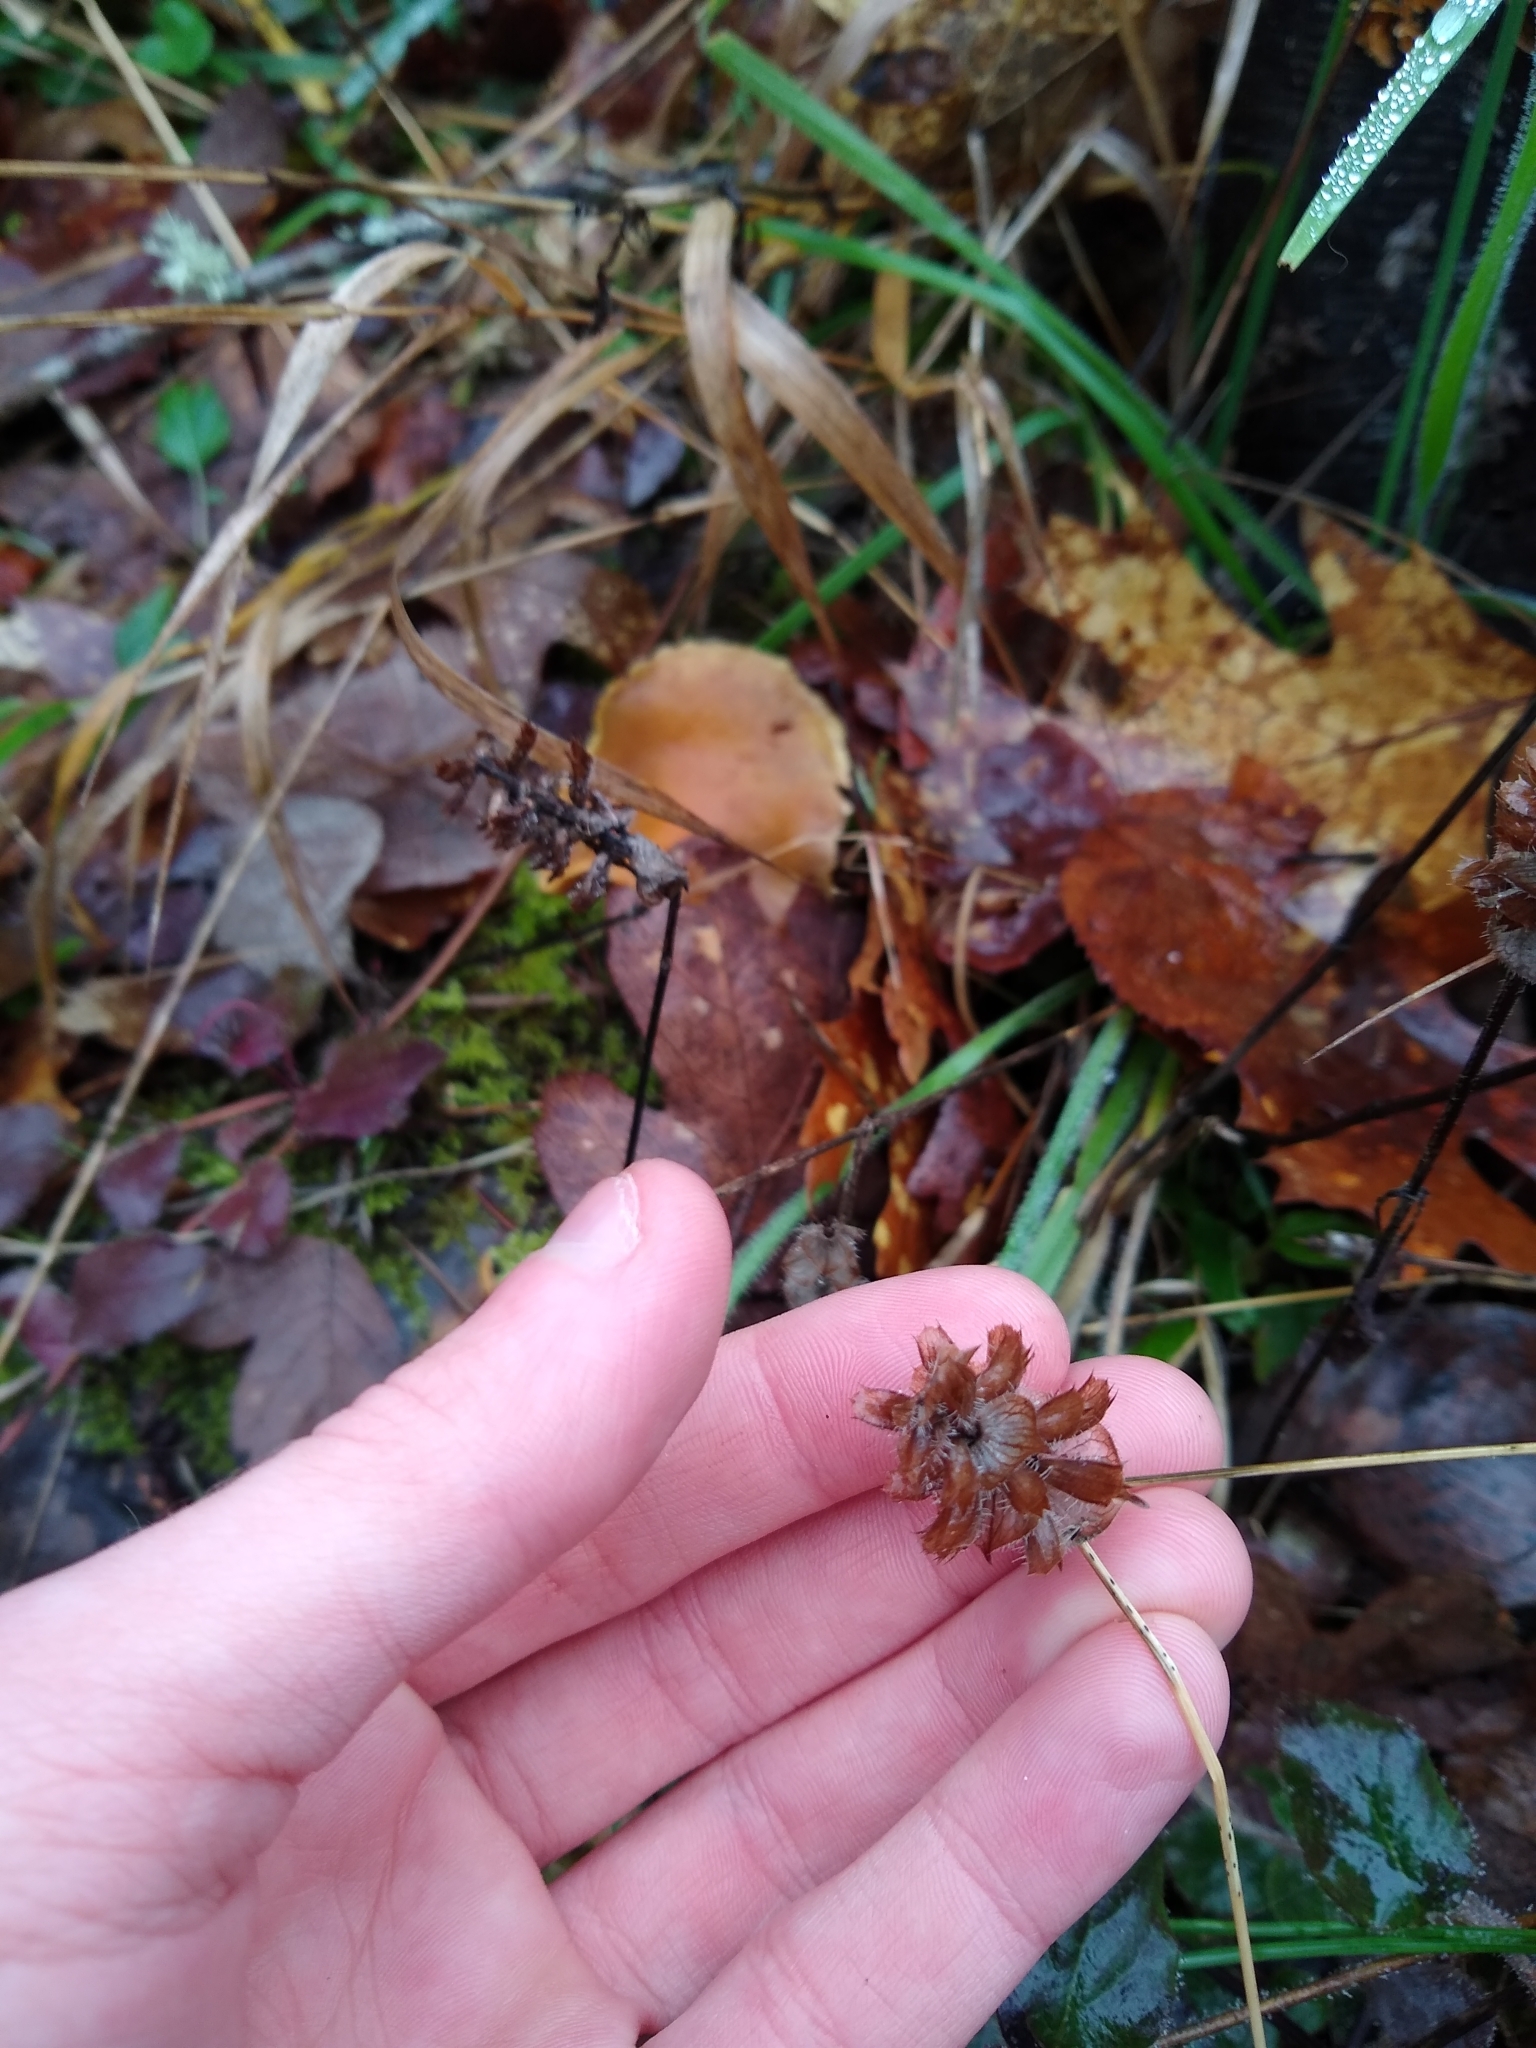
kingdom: Plantae
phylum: Tracheophyta
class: Magnoliopsida
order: Lamiales
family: Lamiaceae
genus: Prunella
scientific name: Prunella vulgaris
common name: Heal-all
